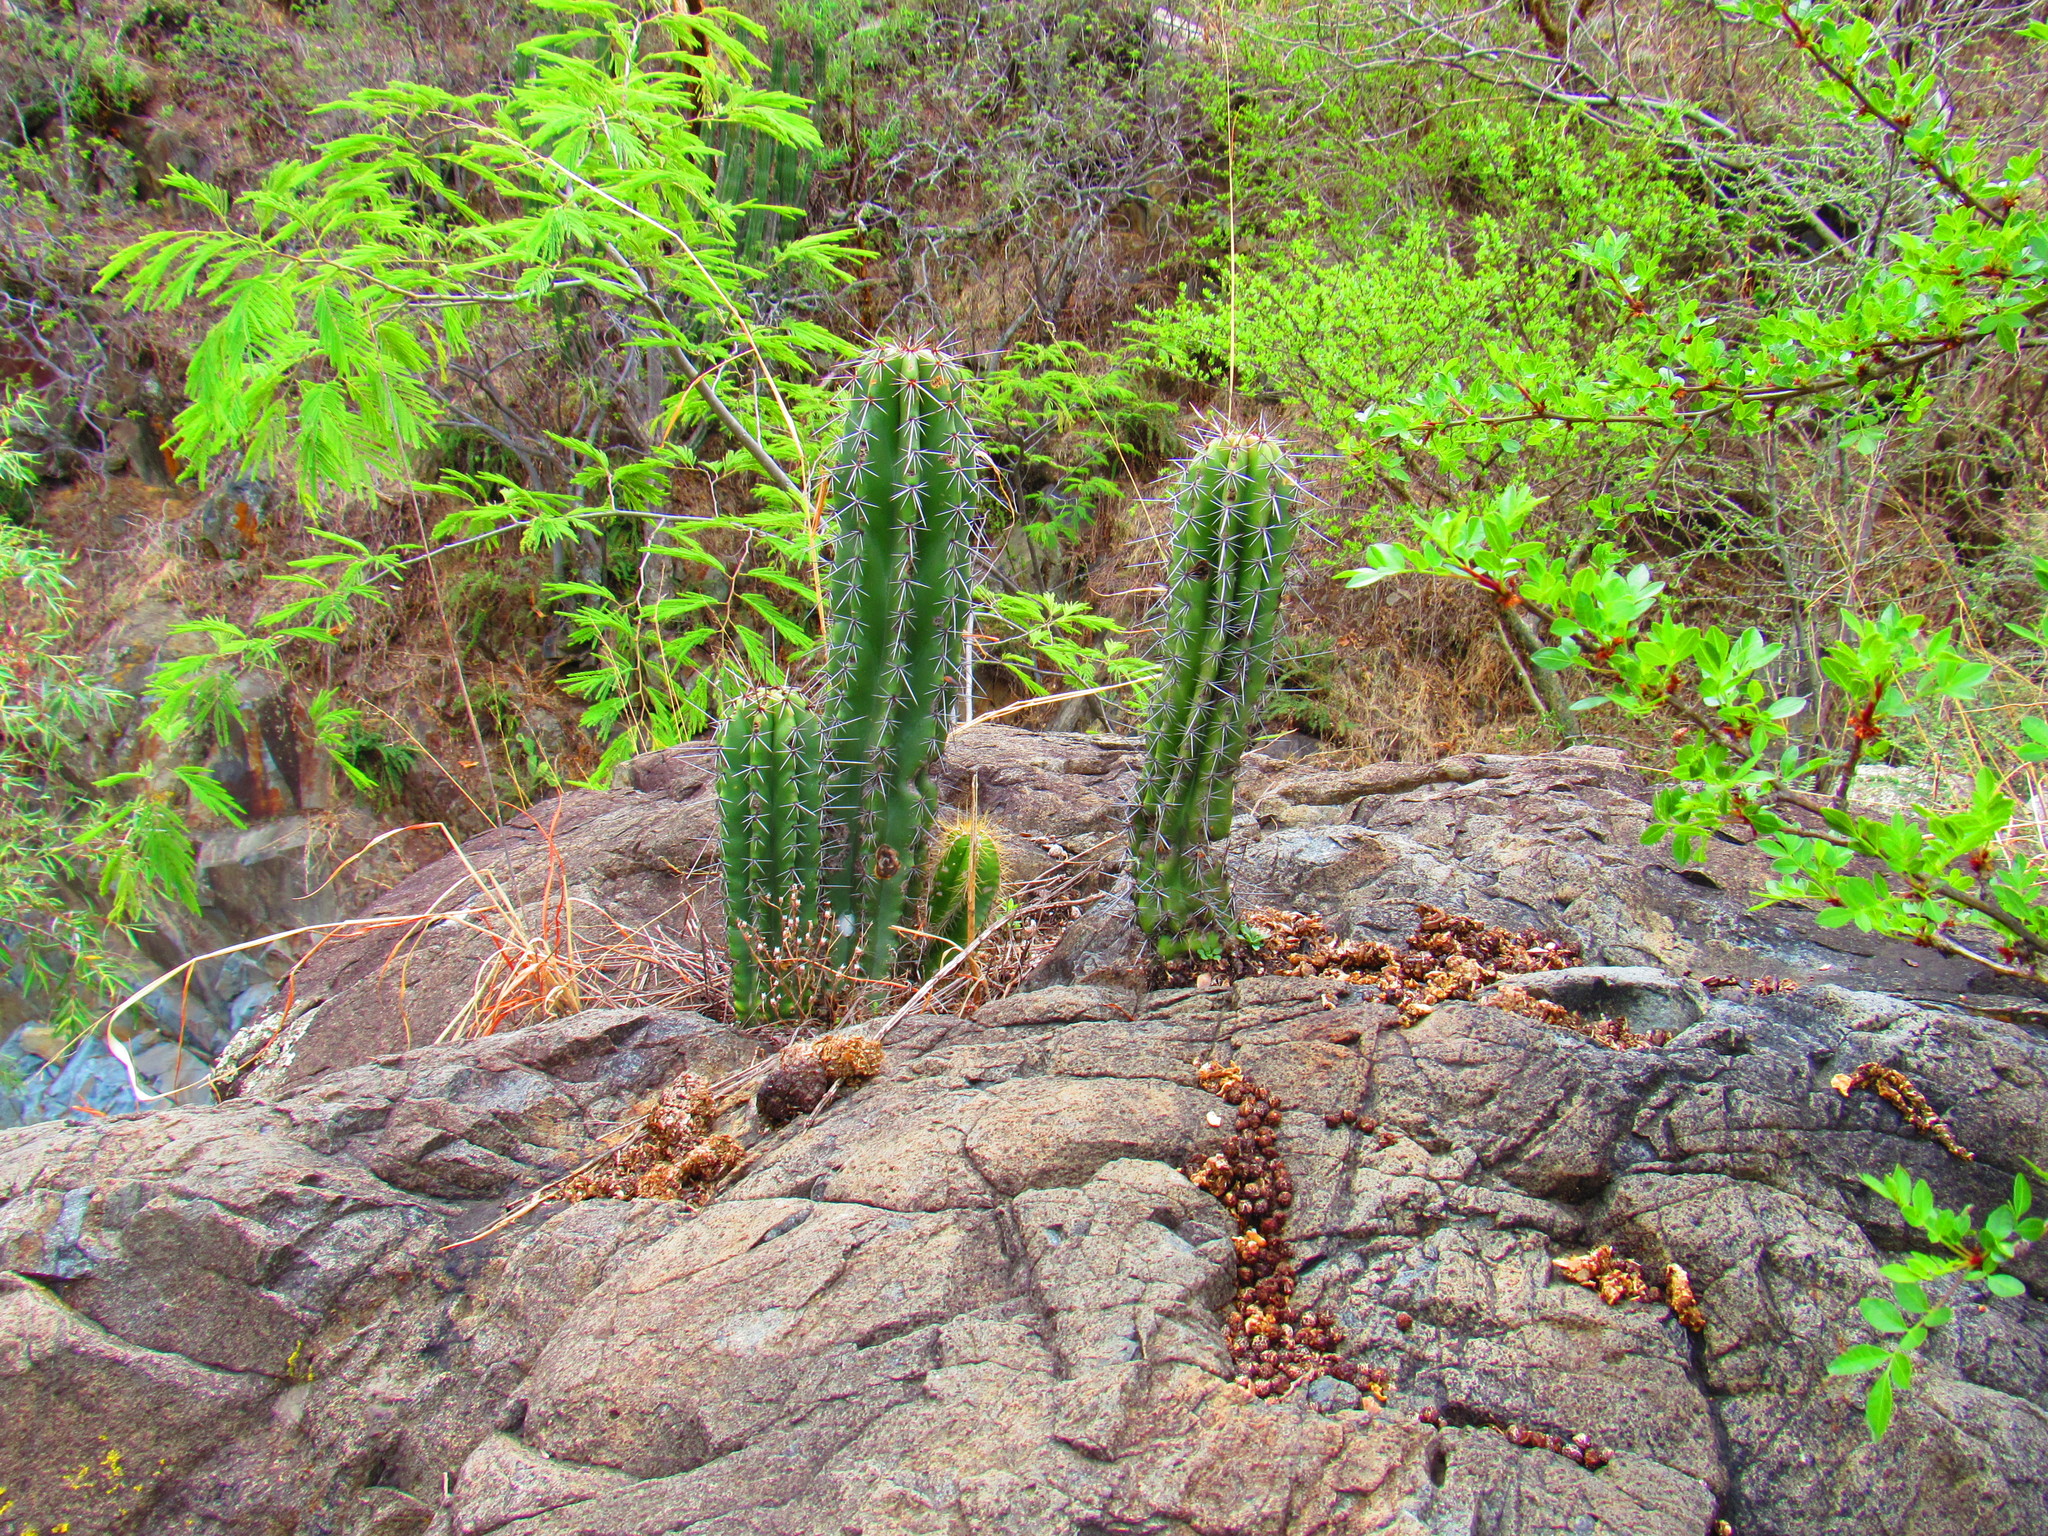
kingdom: Plantae
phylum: Tracheophyta
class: Magnoliopsida
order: Caryophyllales
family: Cactaceae
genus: Stenocereus
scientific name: Stenocereus queretaroensis
